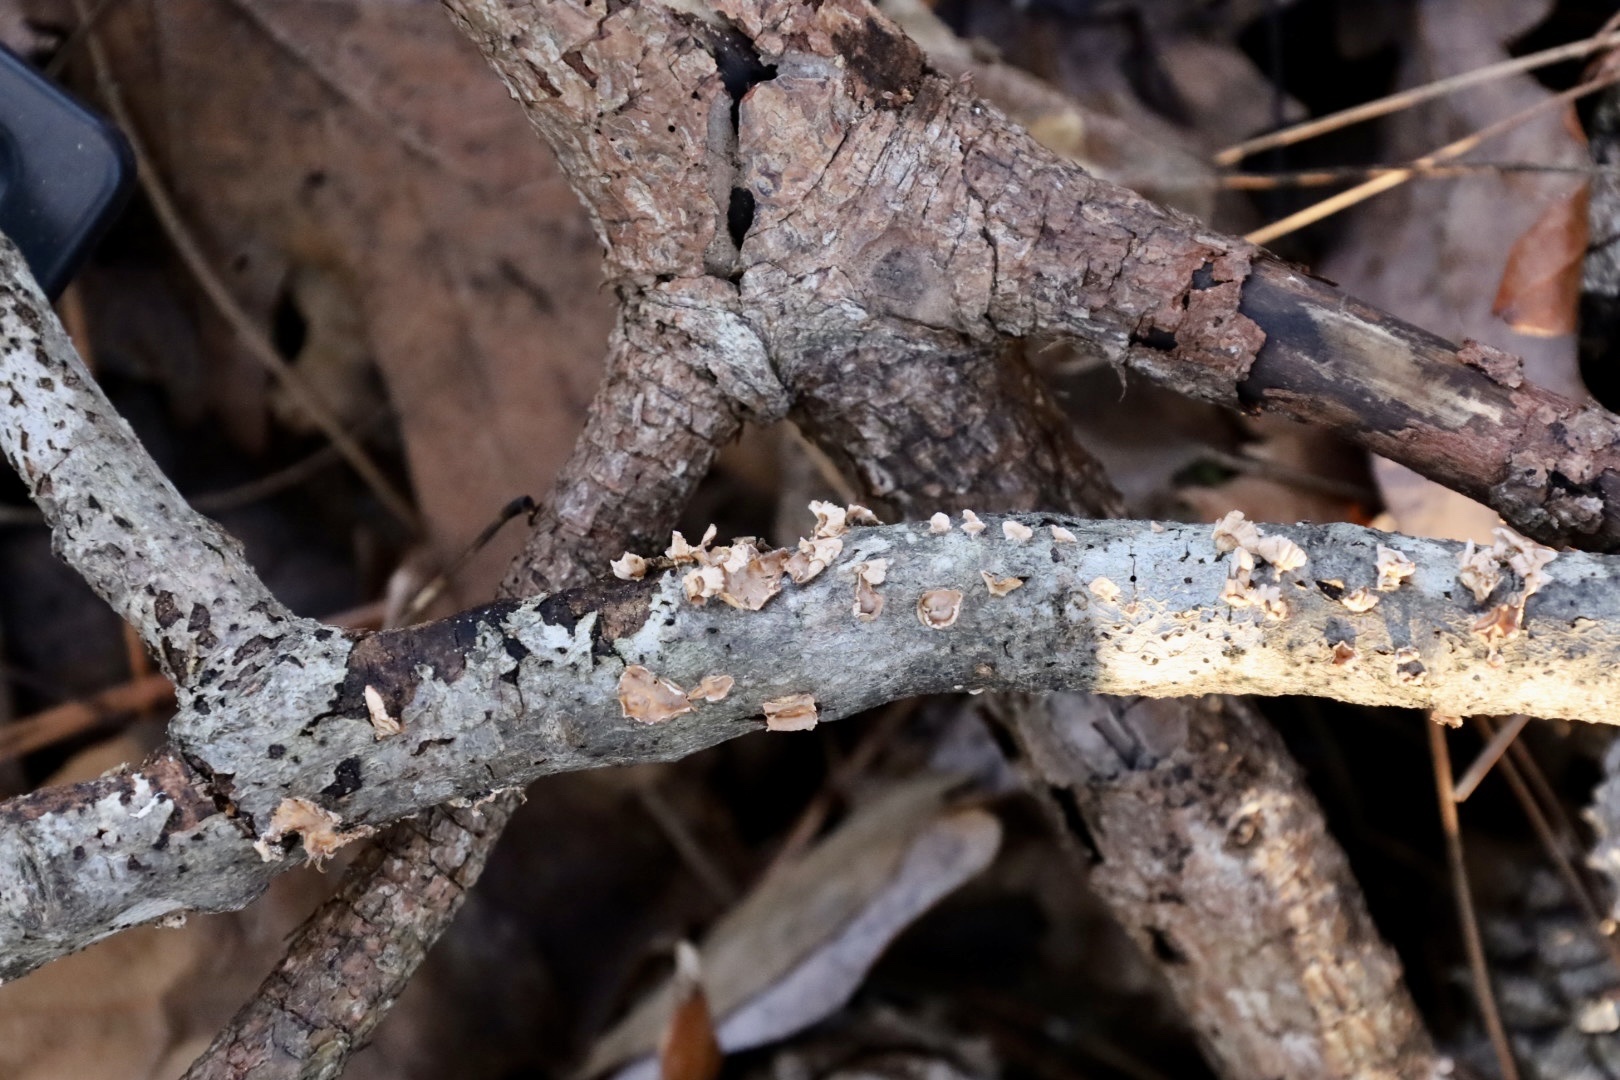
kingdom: Fungi
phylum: Basidiomycota
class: Agaricomycetes
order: Russulales
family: Stereaceae
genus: Stereum
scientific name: Stereum complicatum
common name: Crowded parchment
